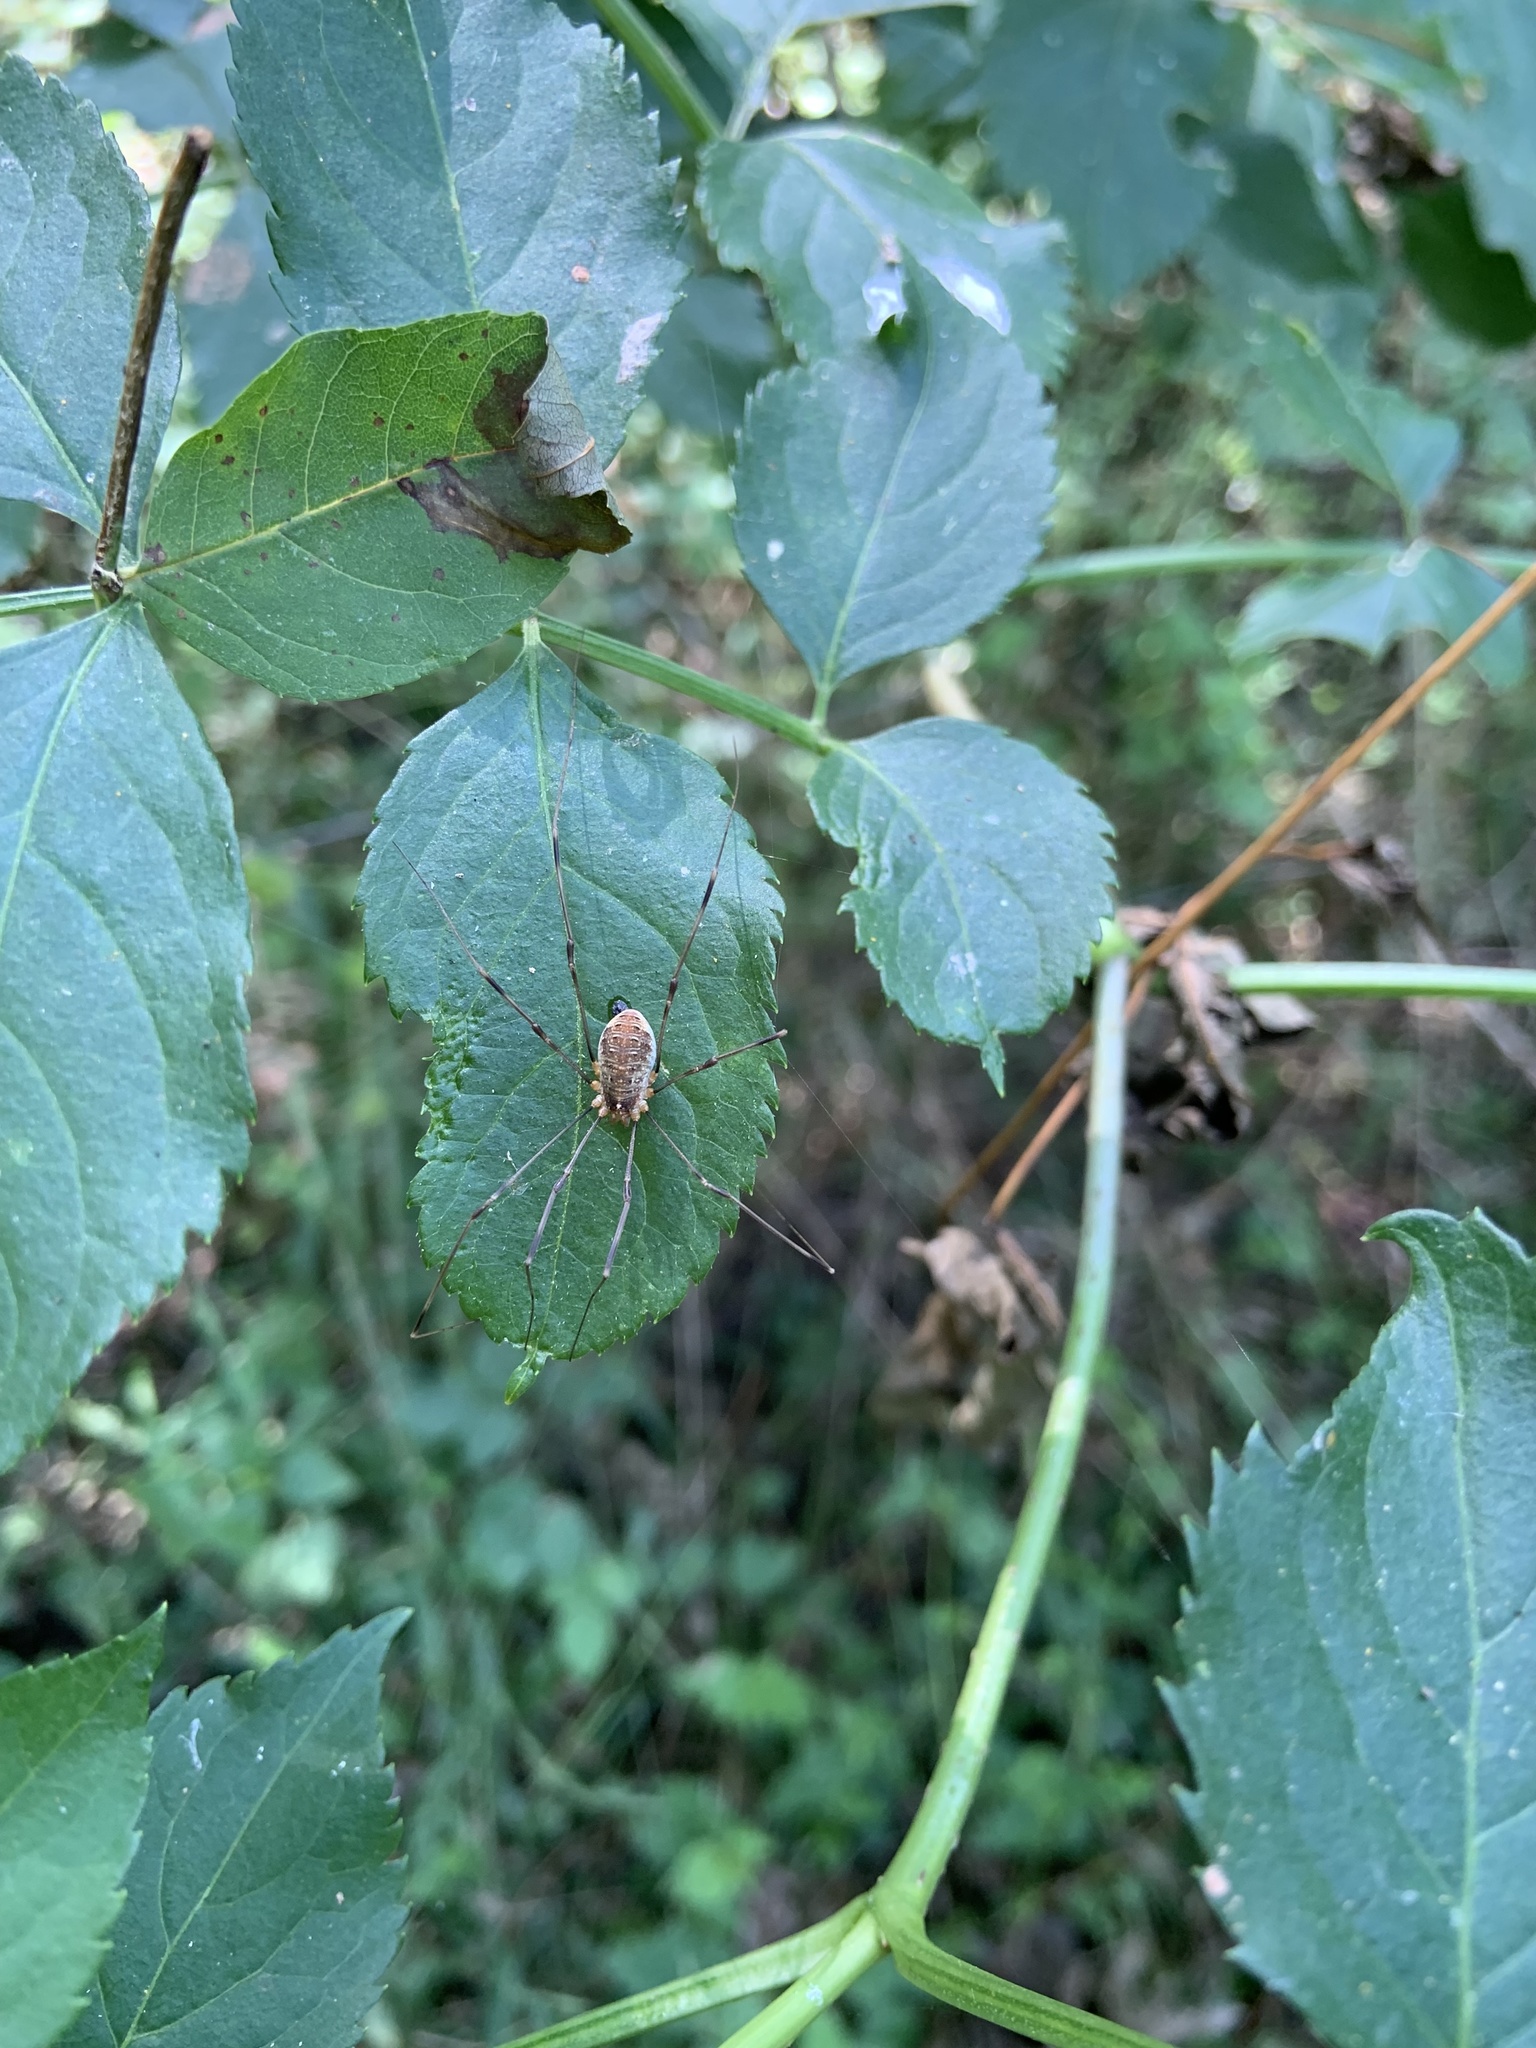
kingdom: Animalia
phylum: Arthropoda
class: Arachnida
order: Opiliones
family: Phalangiidae
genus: Opilio
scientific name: Opilio canestrinii
